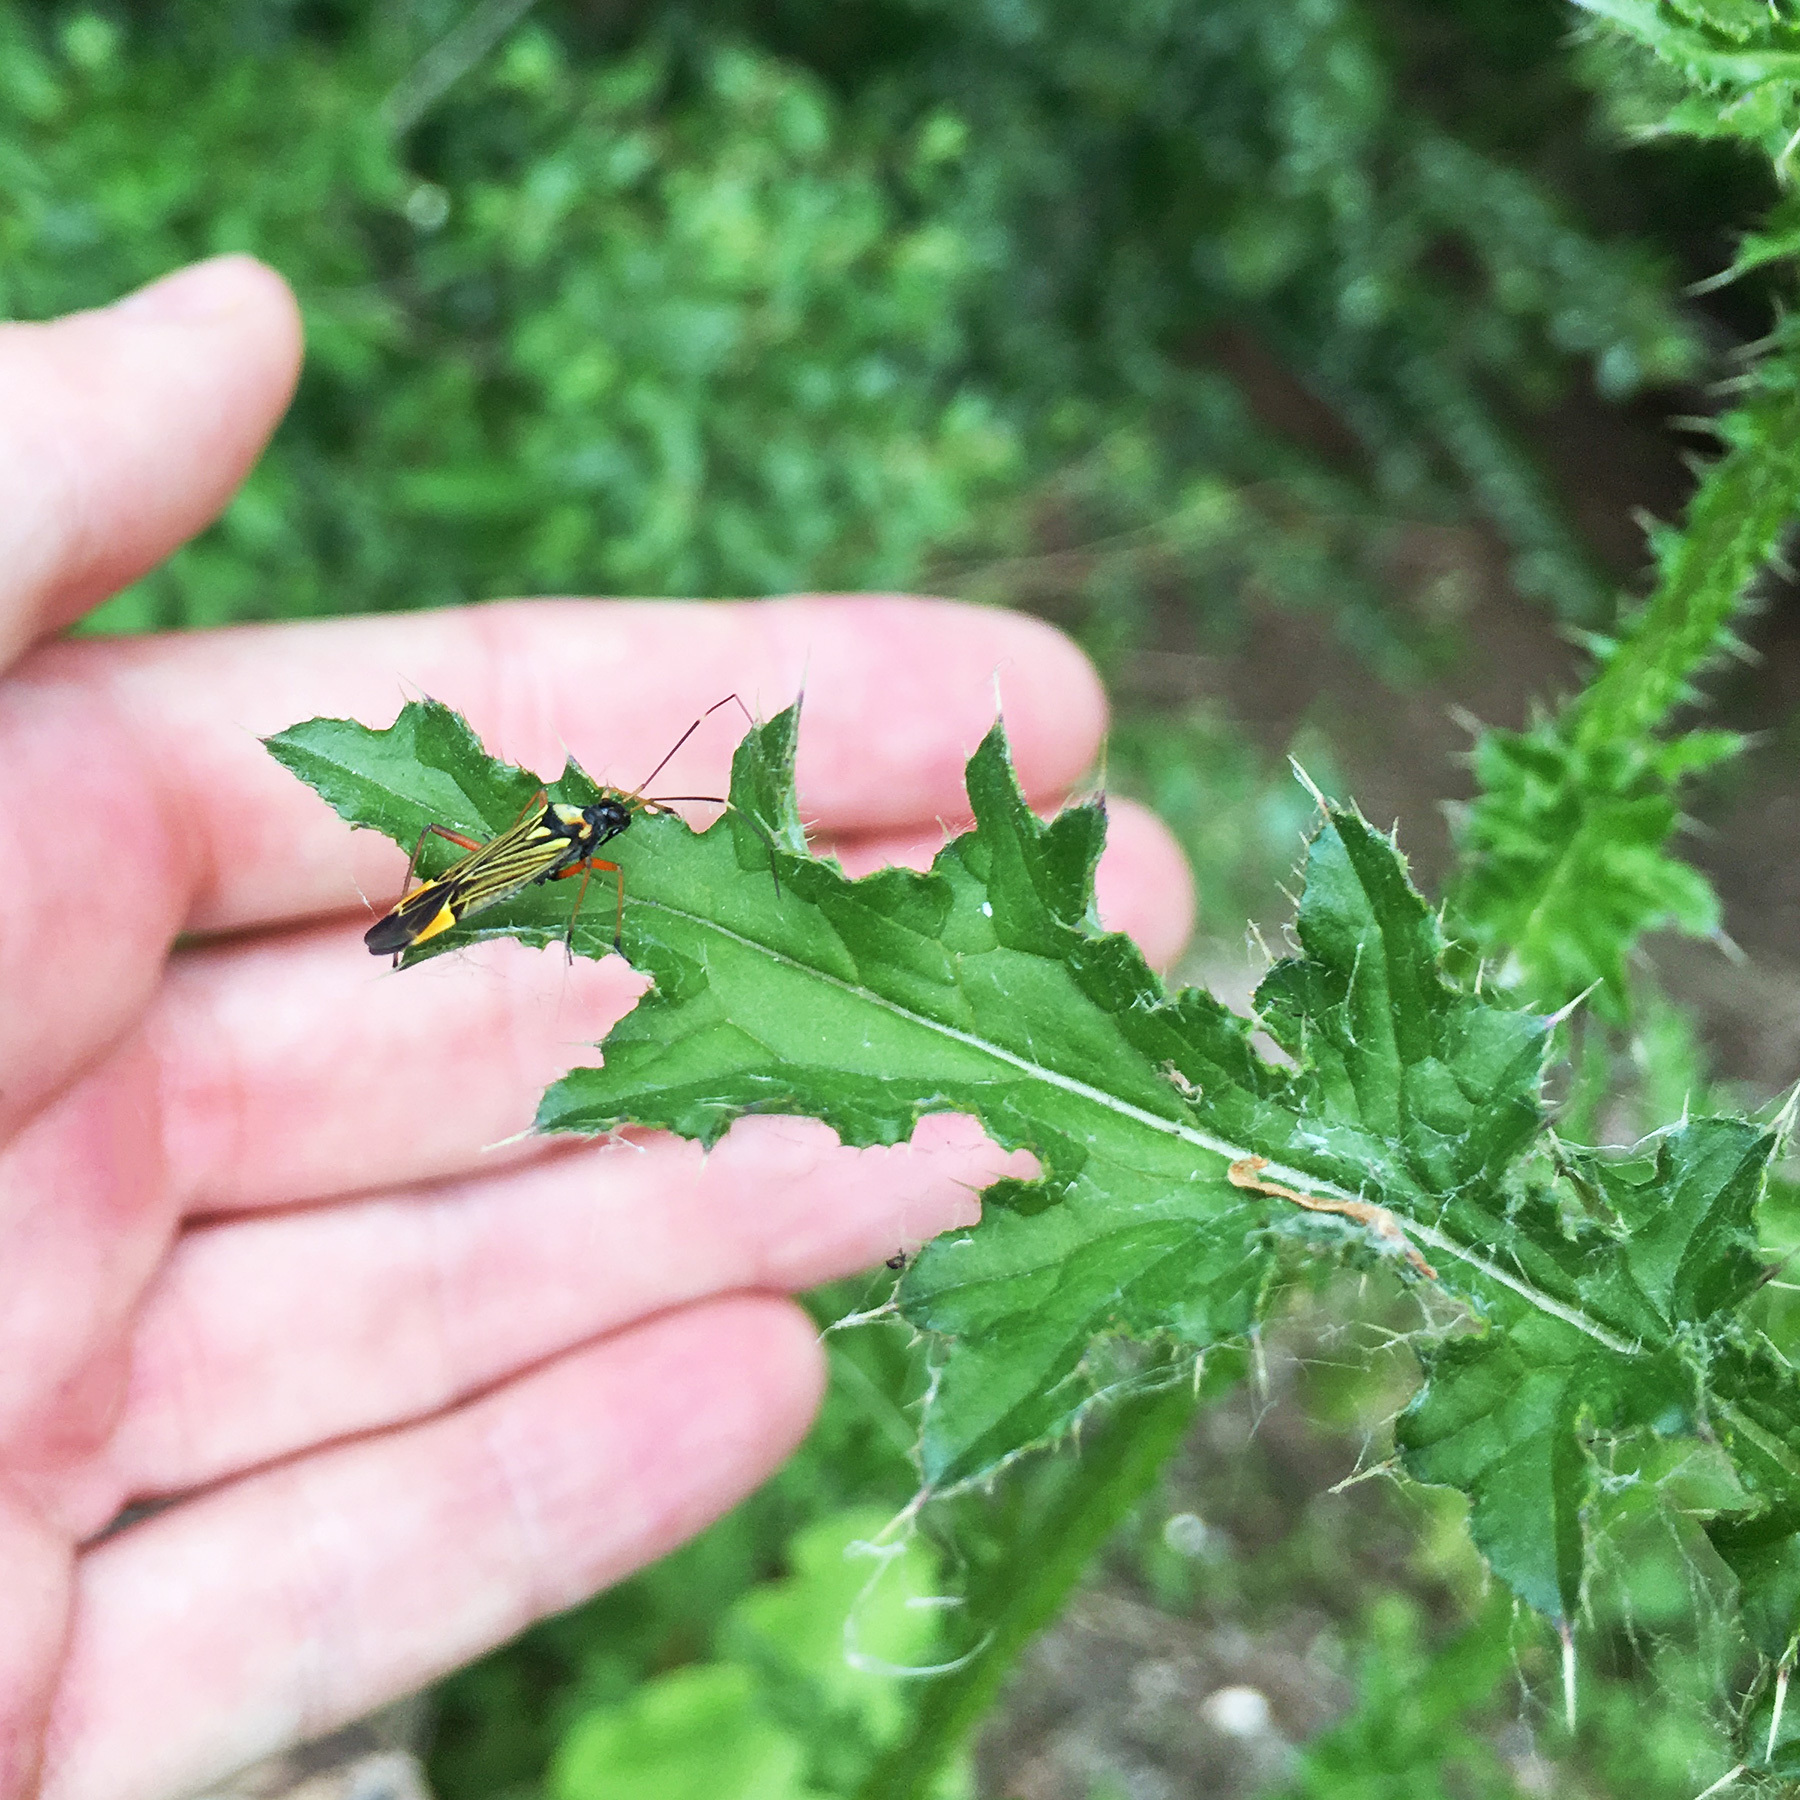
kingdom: Animalia
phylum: Arthropoda
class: Insecta
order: Hemiptera
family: Miridae
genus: Miris
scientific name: Miris striatus
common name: Fine streaked bugkin
